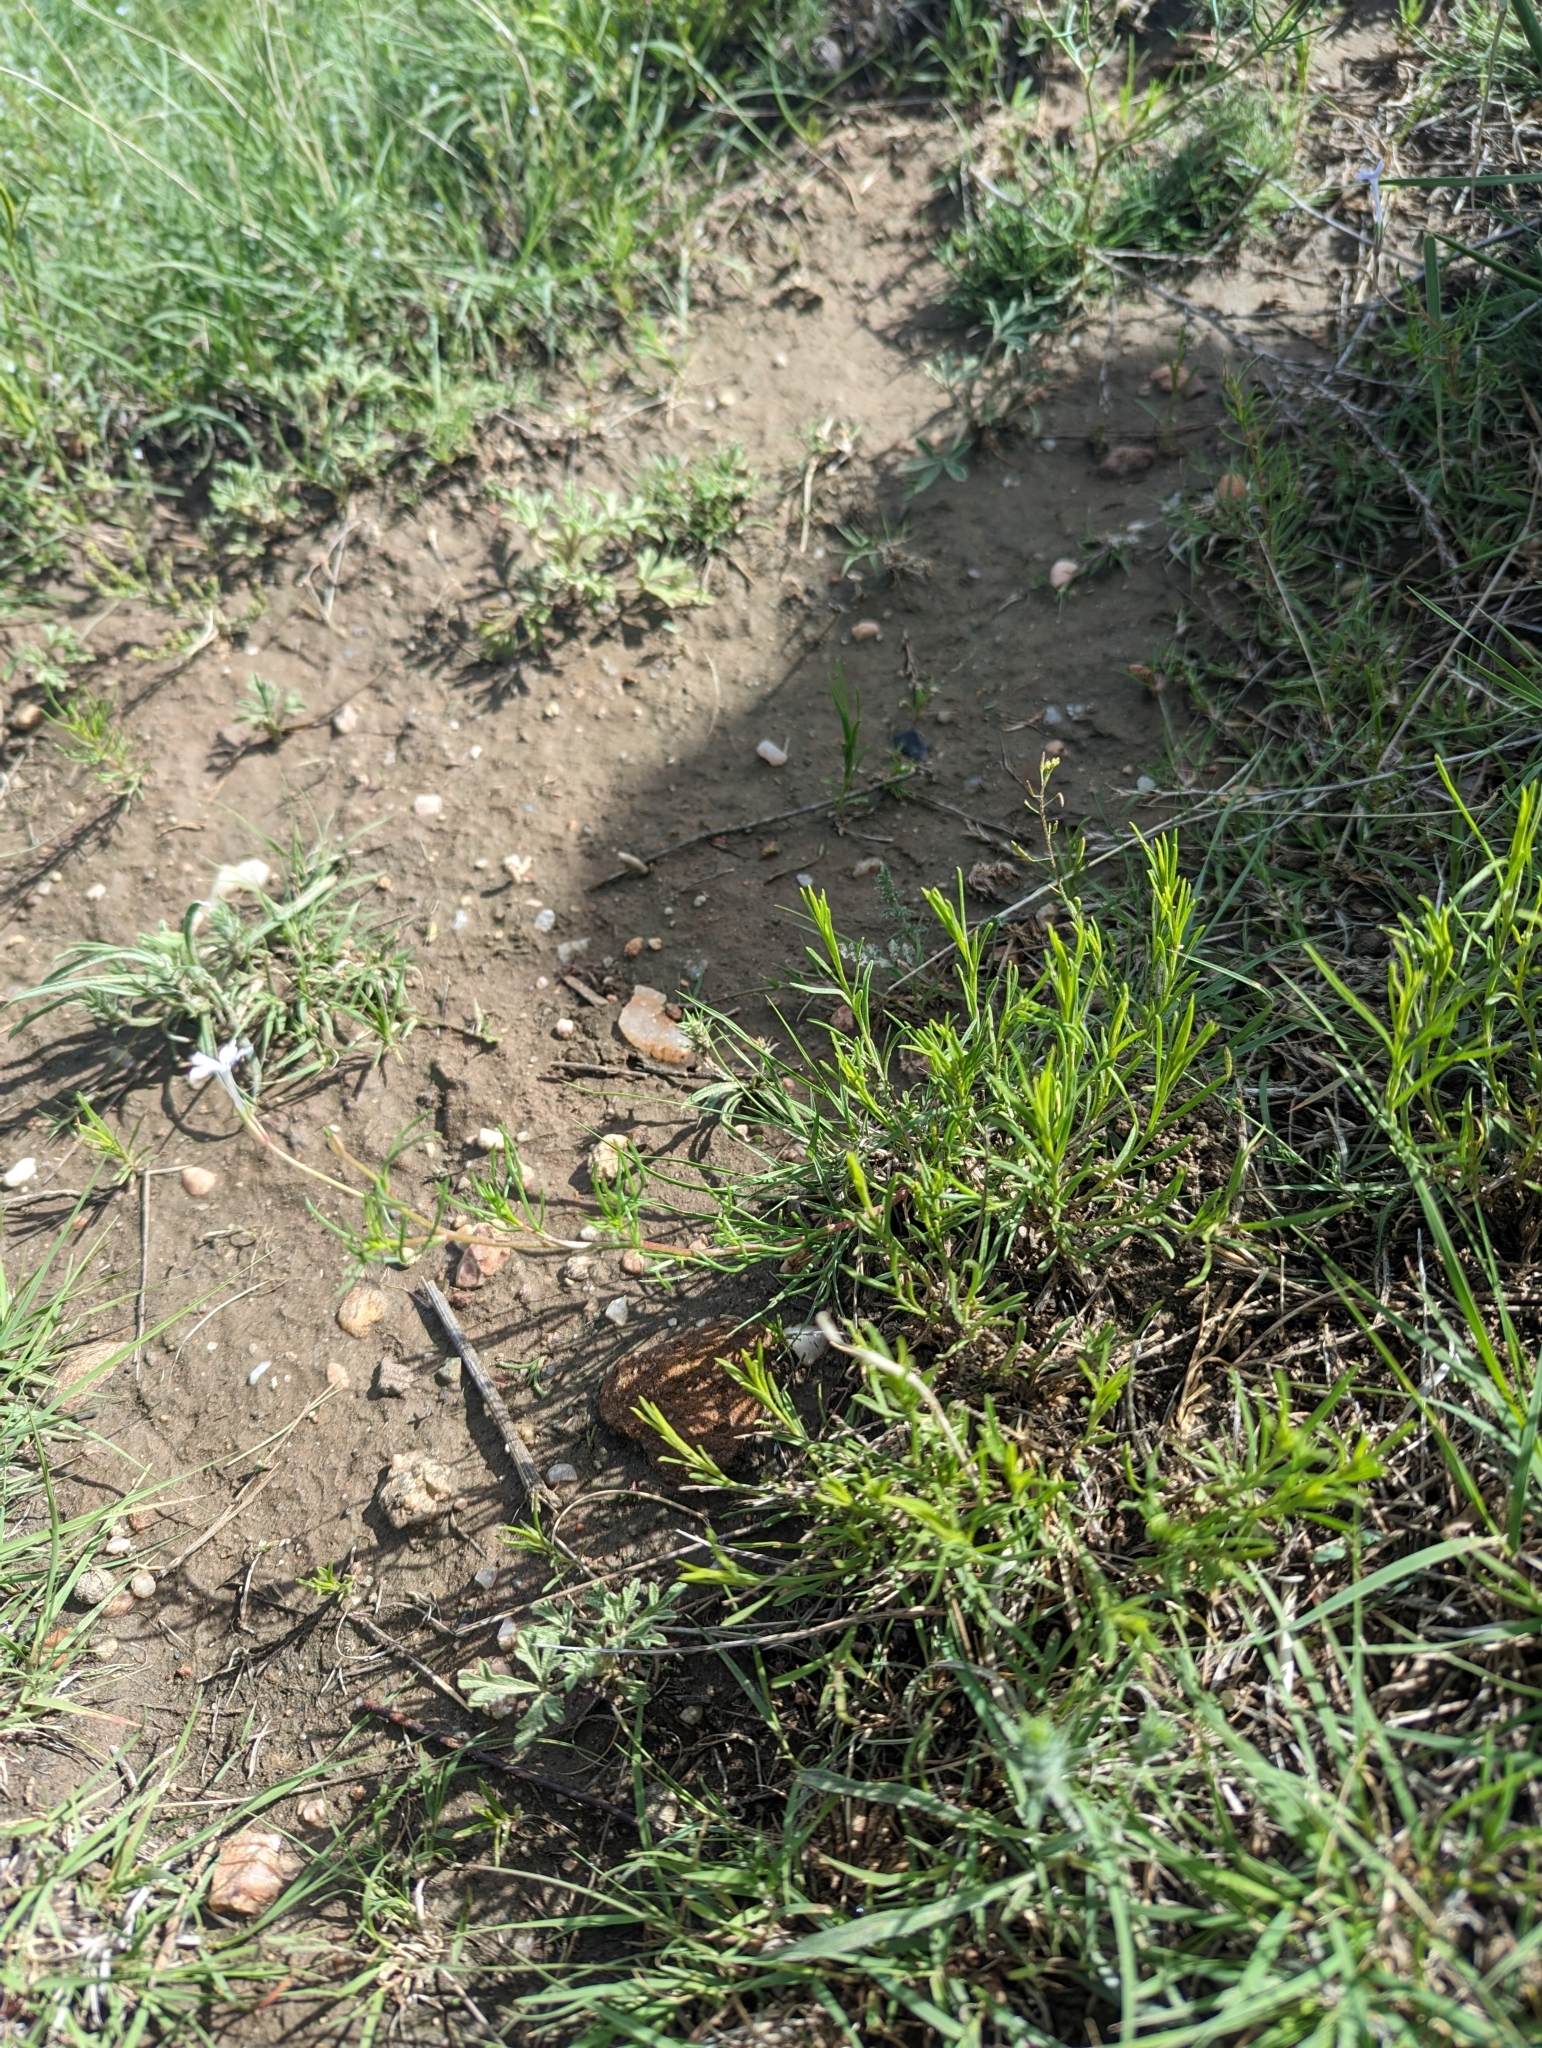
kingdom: Plantae
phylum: Tracheophyta
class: Magnoliopsida
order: Ericales
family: Polemoniaceae
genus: Ipomopsis
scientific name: Ipomopsis laxiflora
